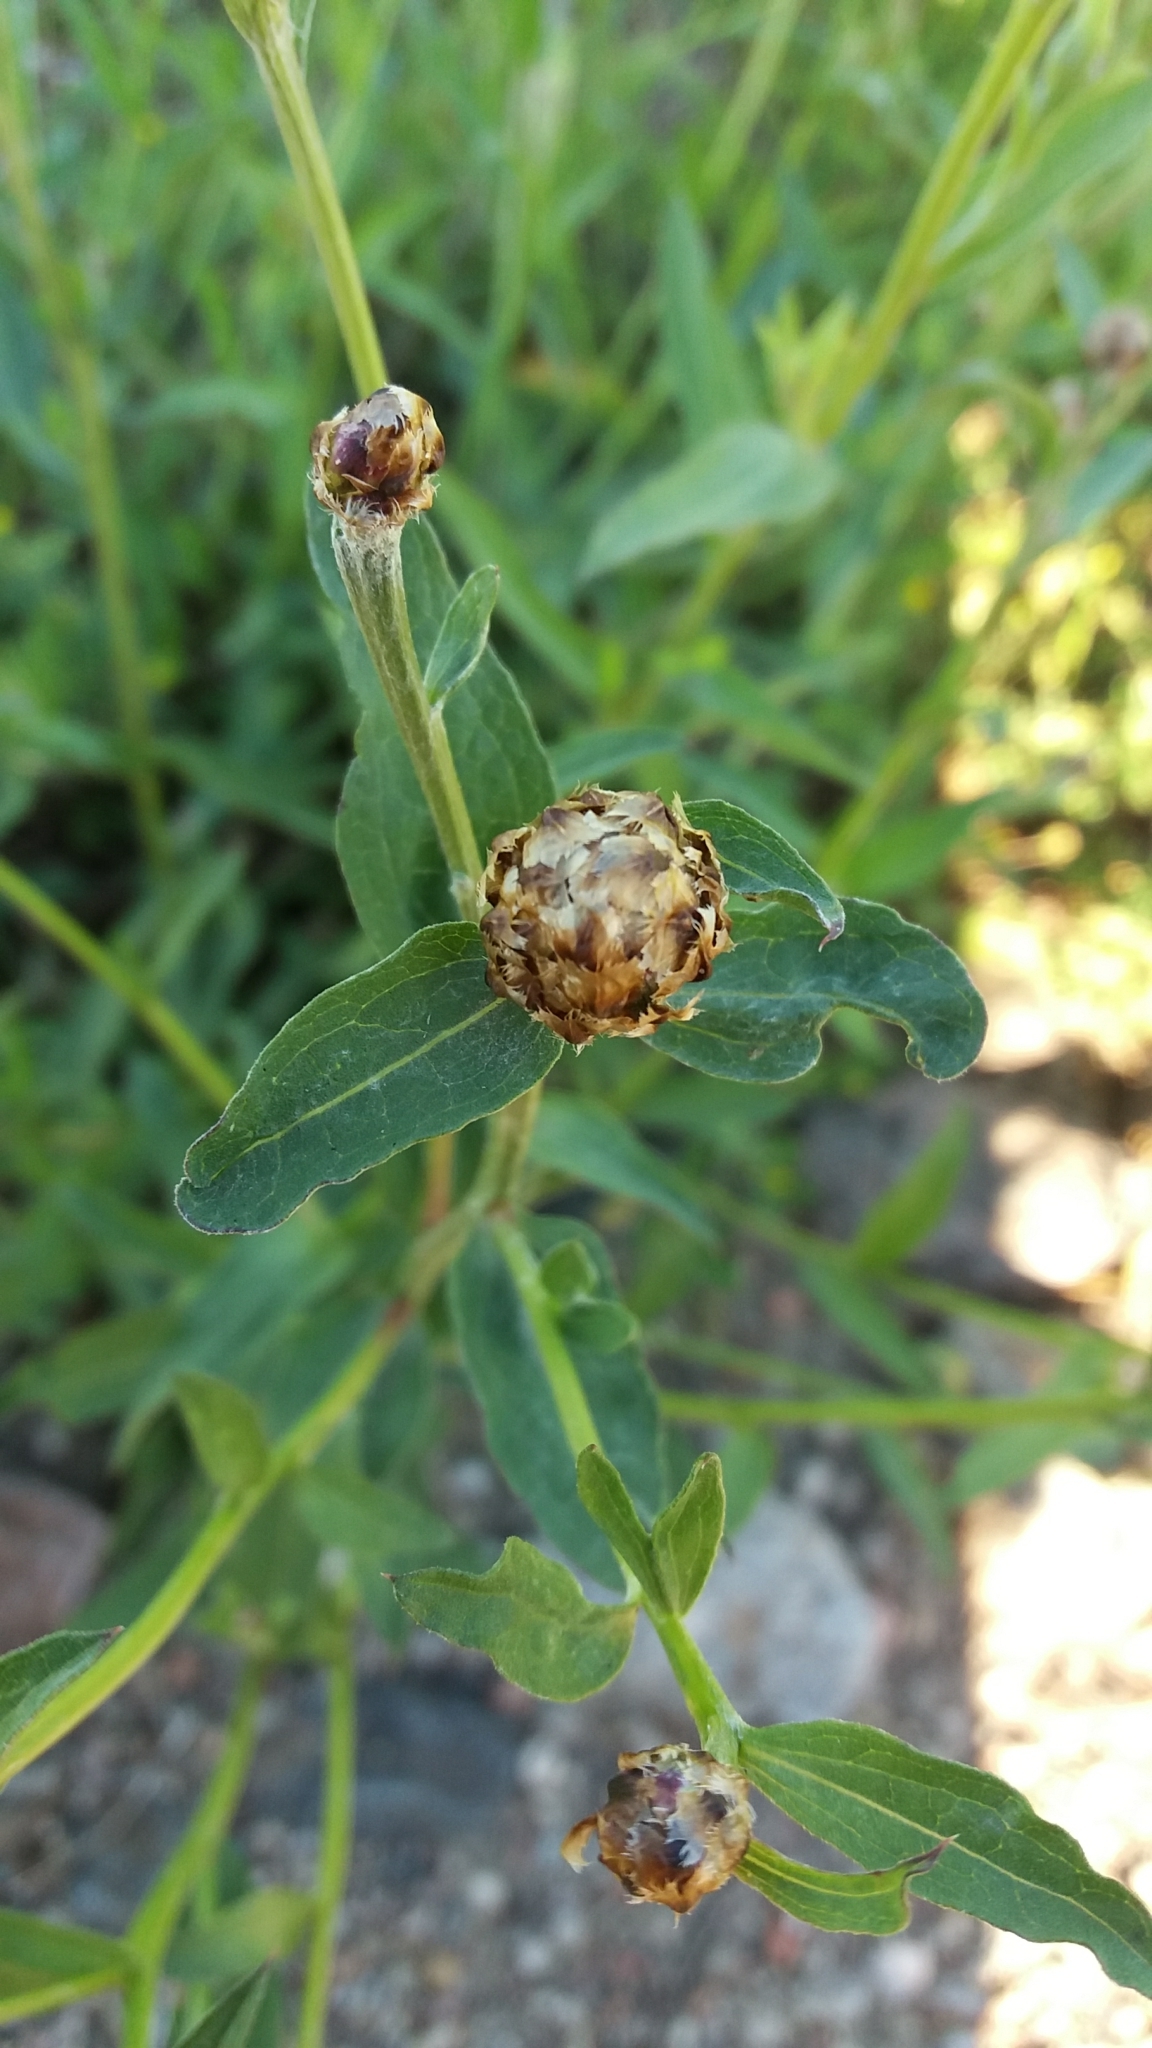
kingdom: Plantae
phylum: Tracheophyta
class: Magnoliopsida
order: Asterales
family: Asteraceae
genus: Centaurea
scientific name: Centaurea jacea
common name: Brown knapweed
